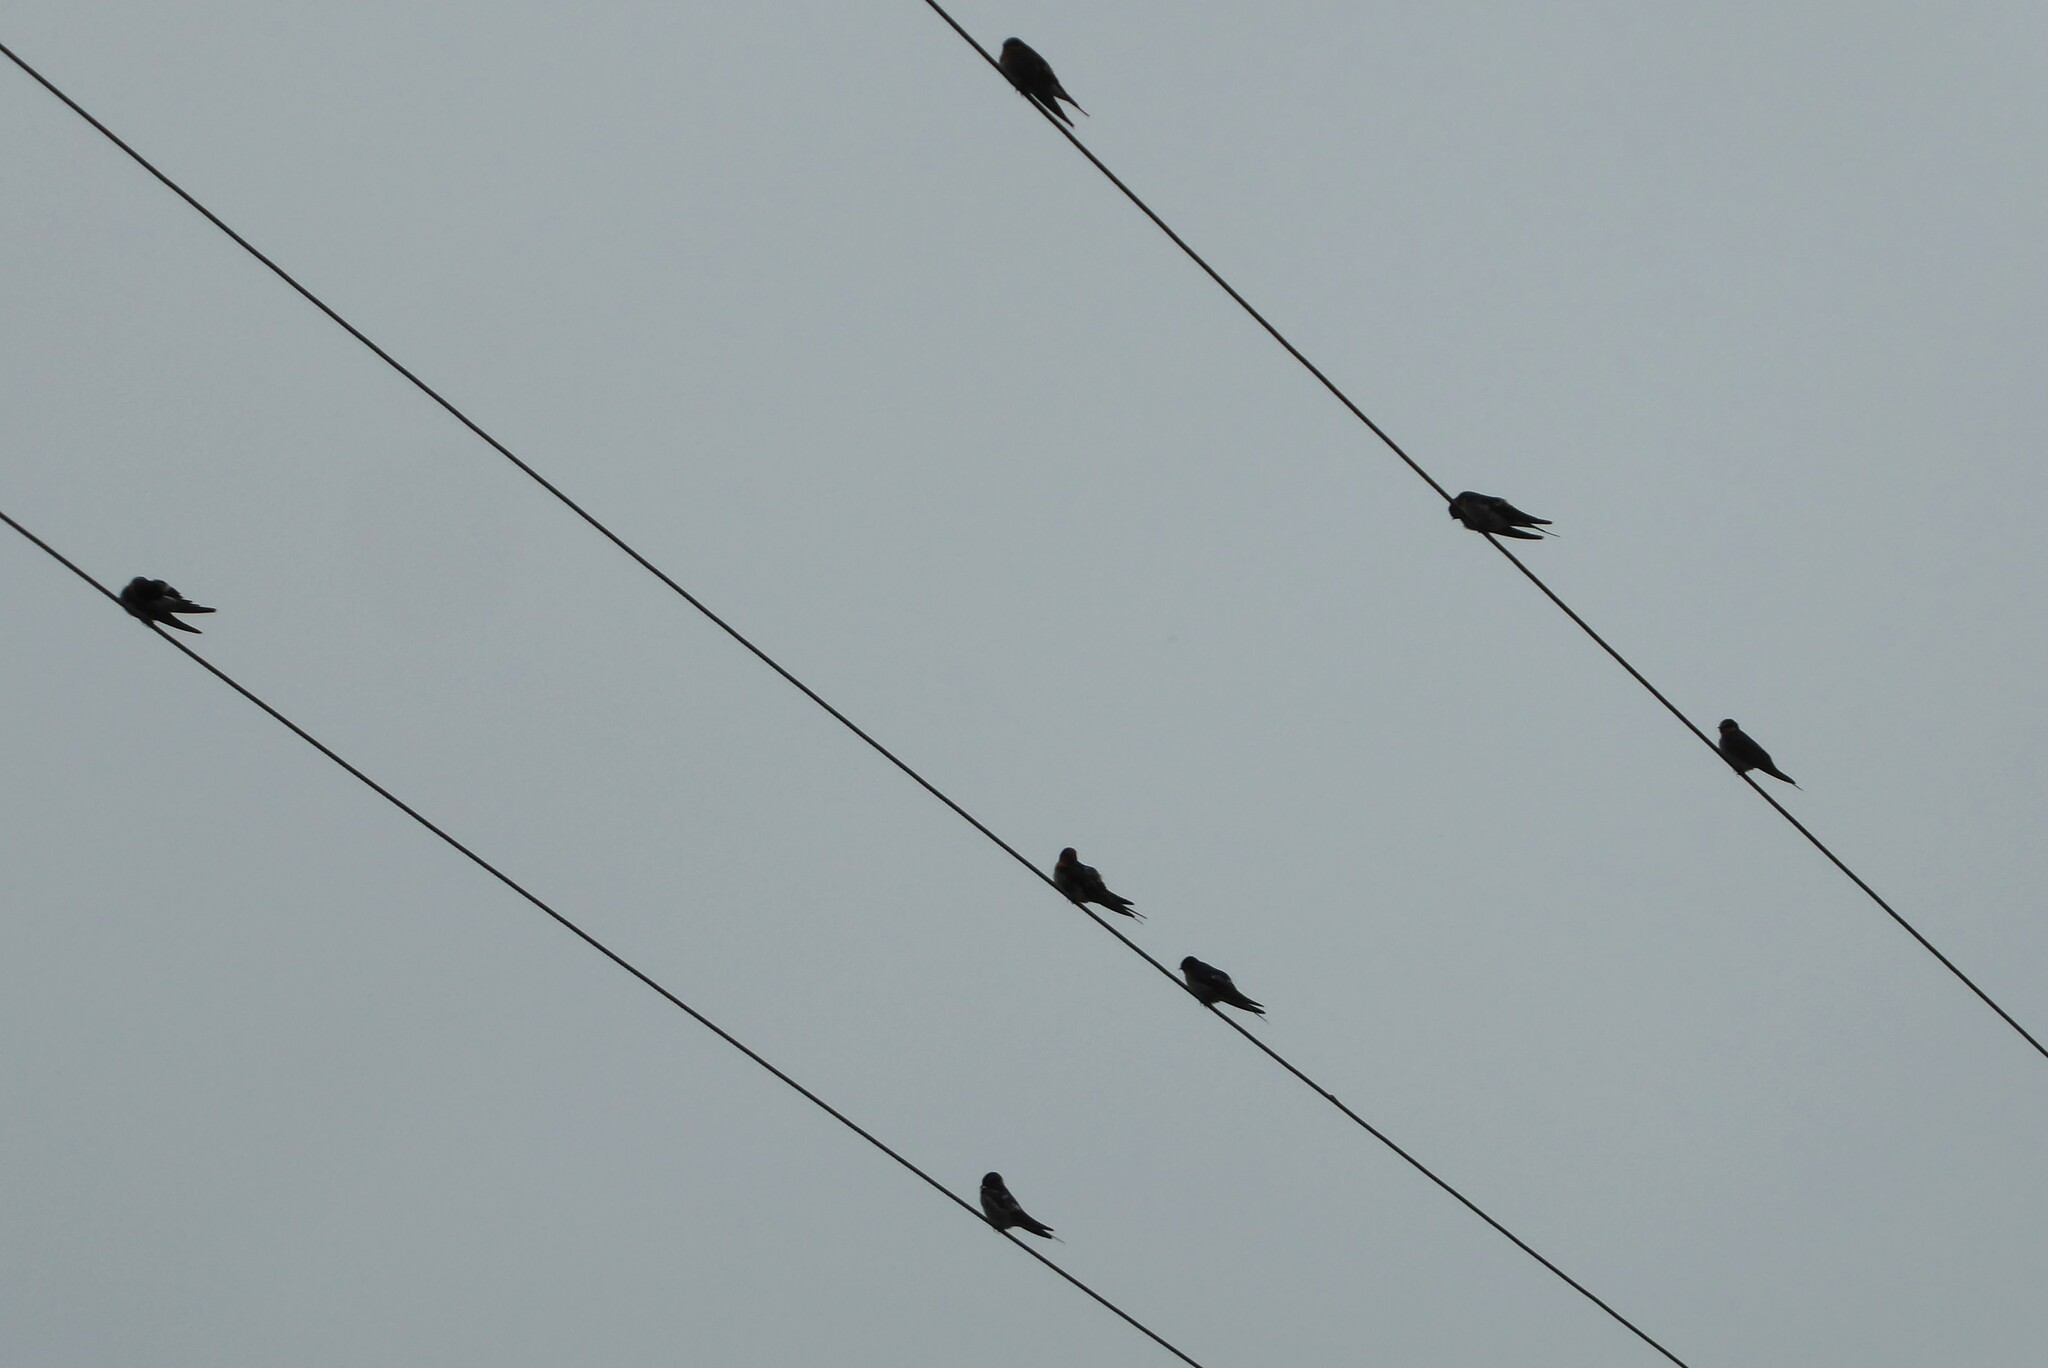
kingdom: Animalia
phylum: Chordata
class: Aves
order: Passeriformes
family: Hirundinidae
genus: Hirundo
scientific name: Hirundo neoxena
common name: Welcome swallow
